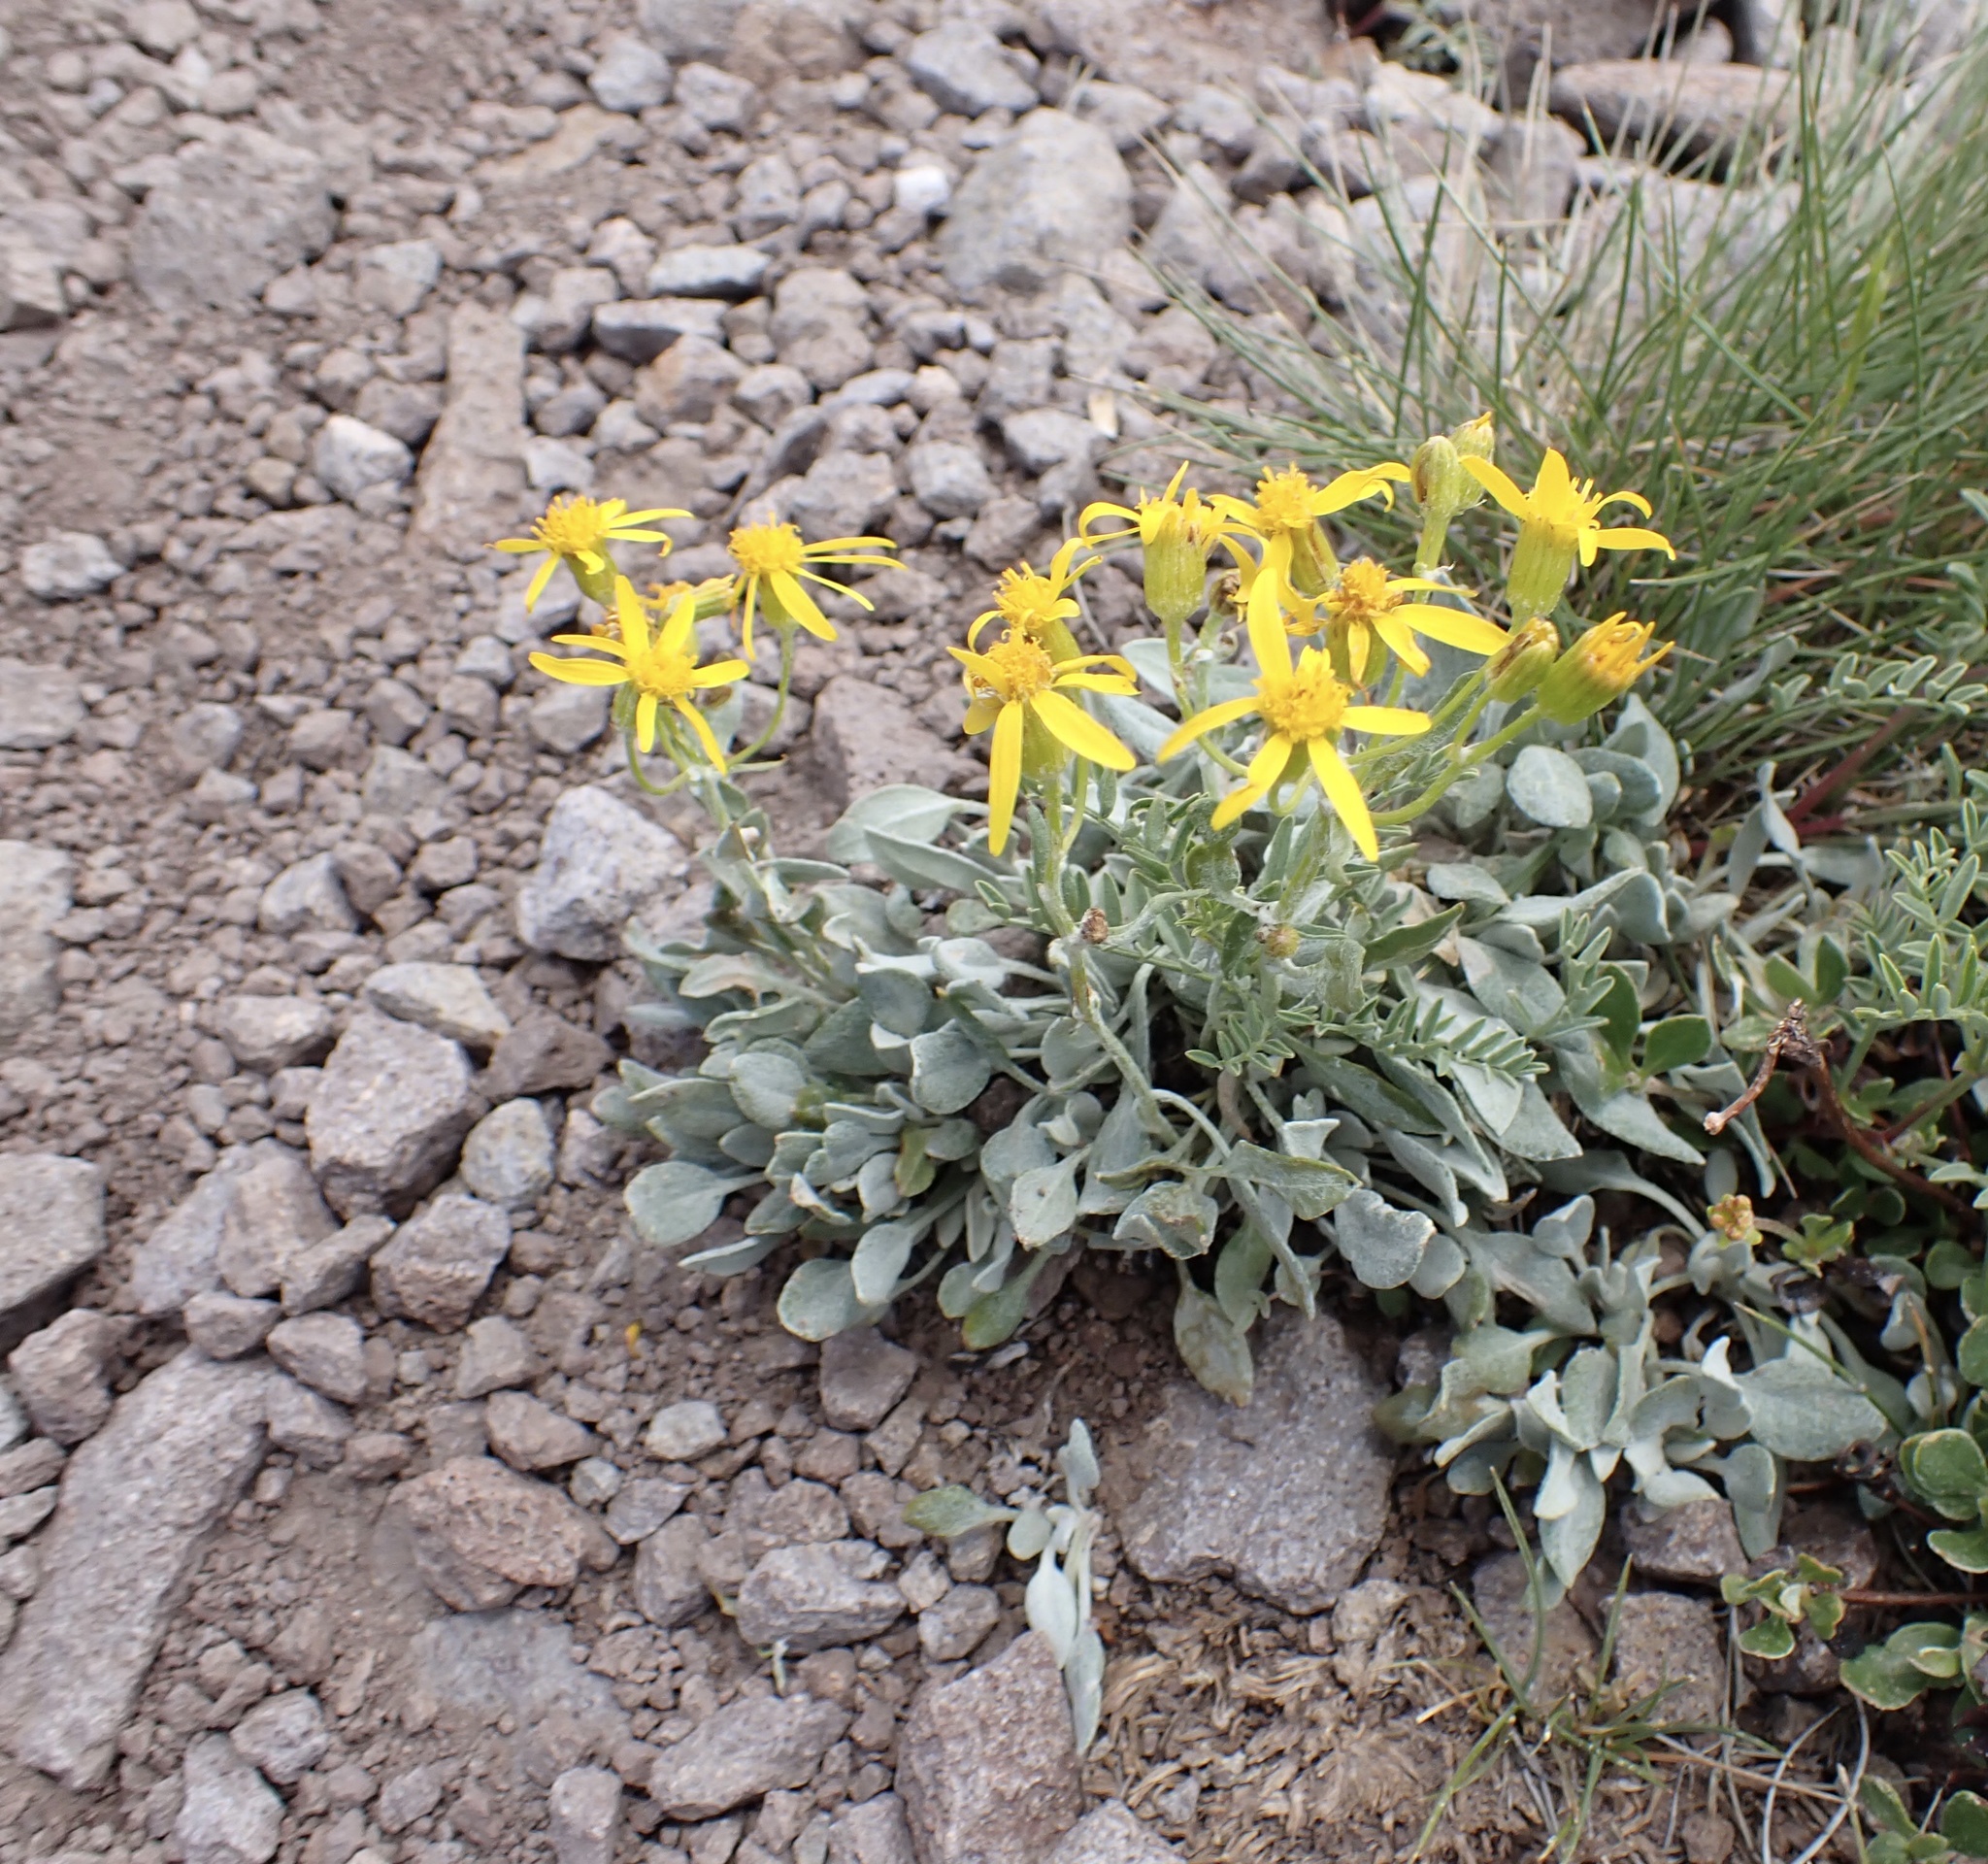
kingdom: Plantae
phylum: Tracheophyta
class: Magnoliopsida
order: Asterales
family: Asteraceae
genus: Packera
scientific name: Packera cana
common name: Woolly groundsel
